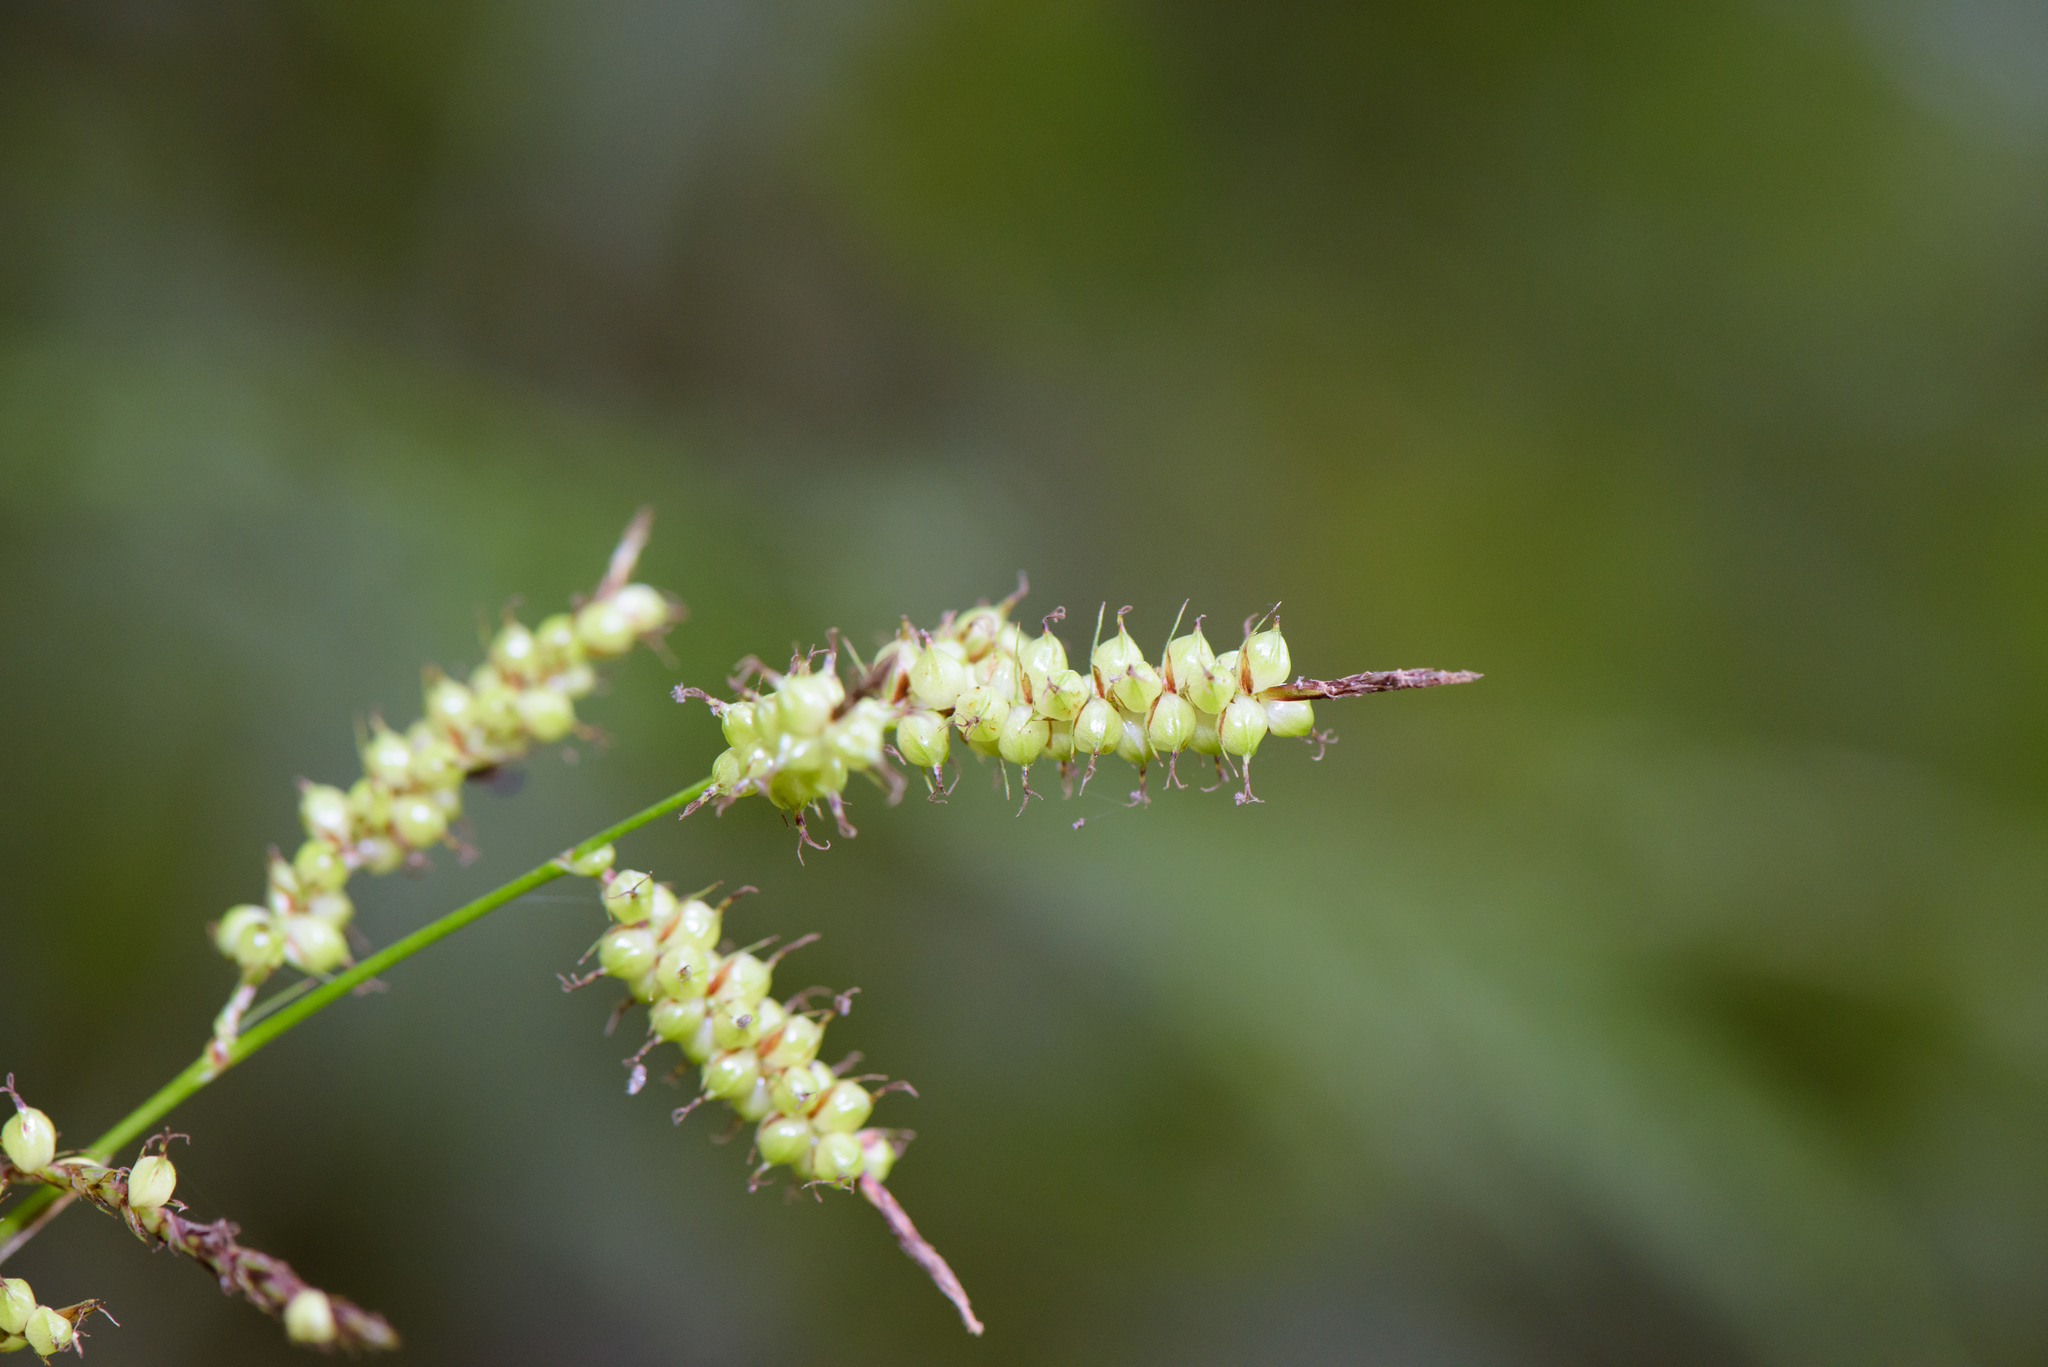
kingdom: Plantae
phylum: Tracheophyta
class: Liliopsida
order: Poales
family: Cyperaceae
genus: Carex
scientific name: Carex baccans
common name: Crimson seeded sedge
